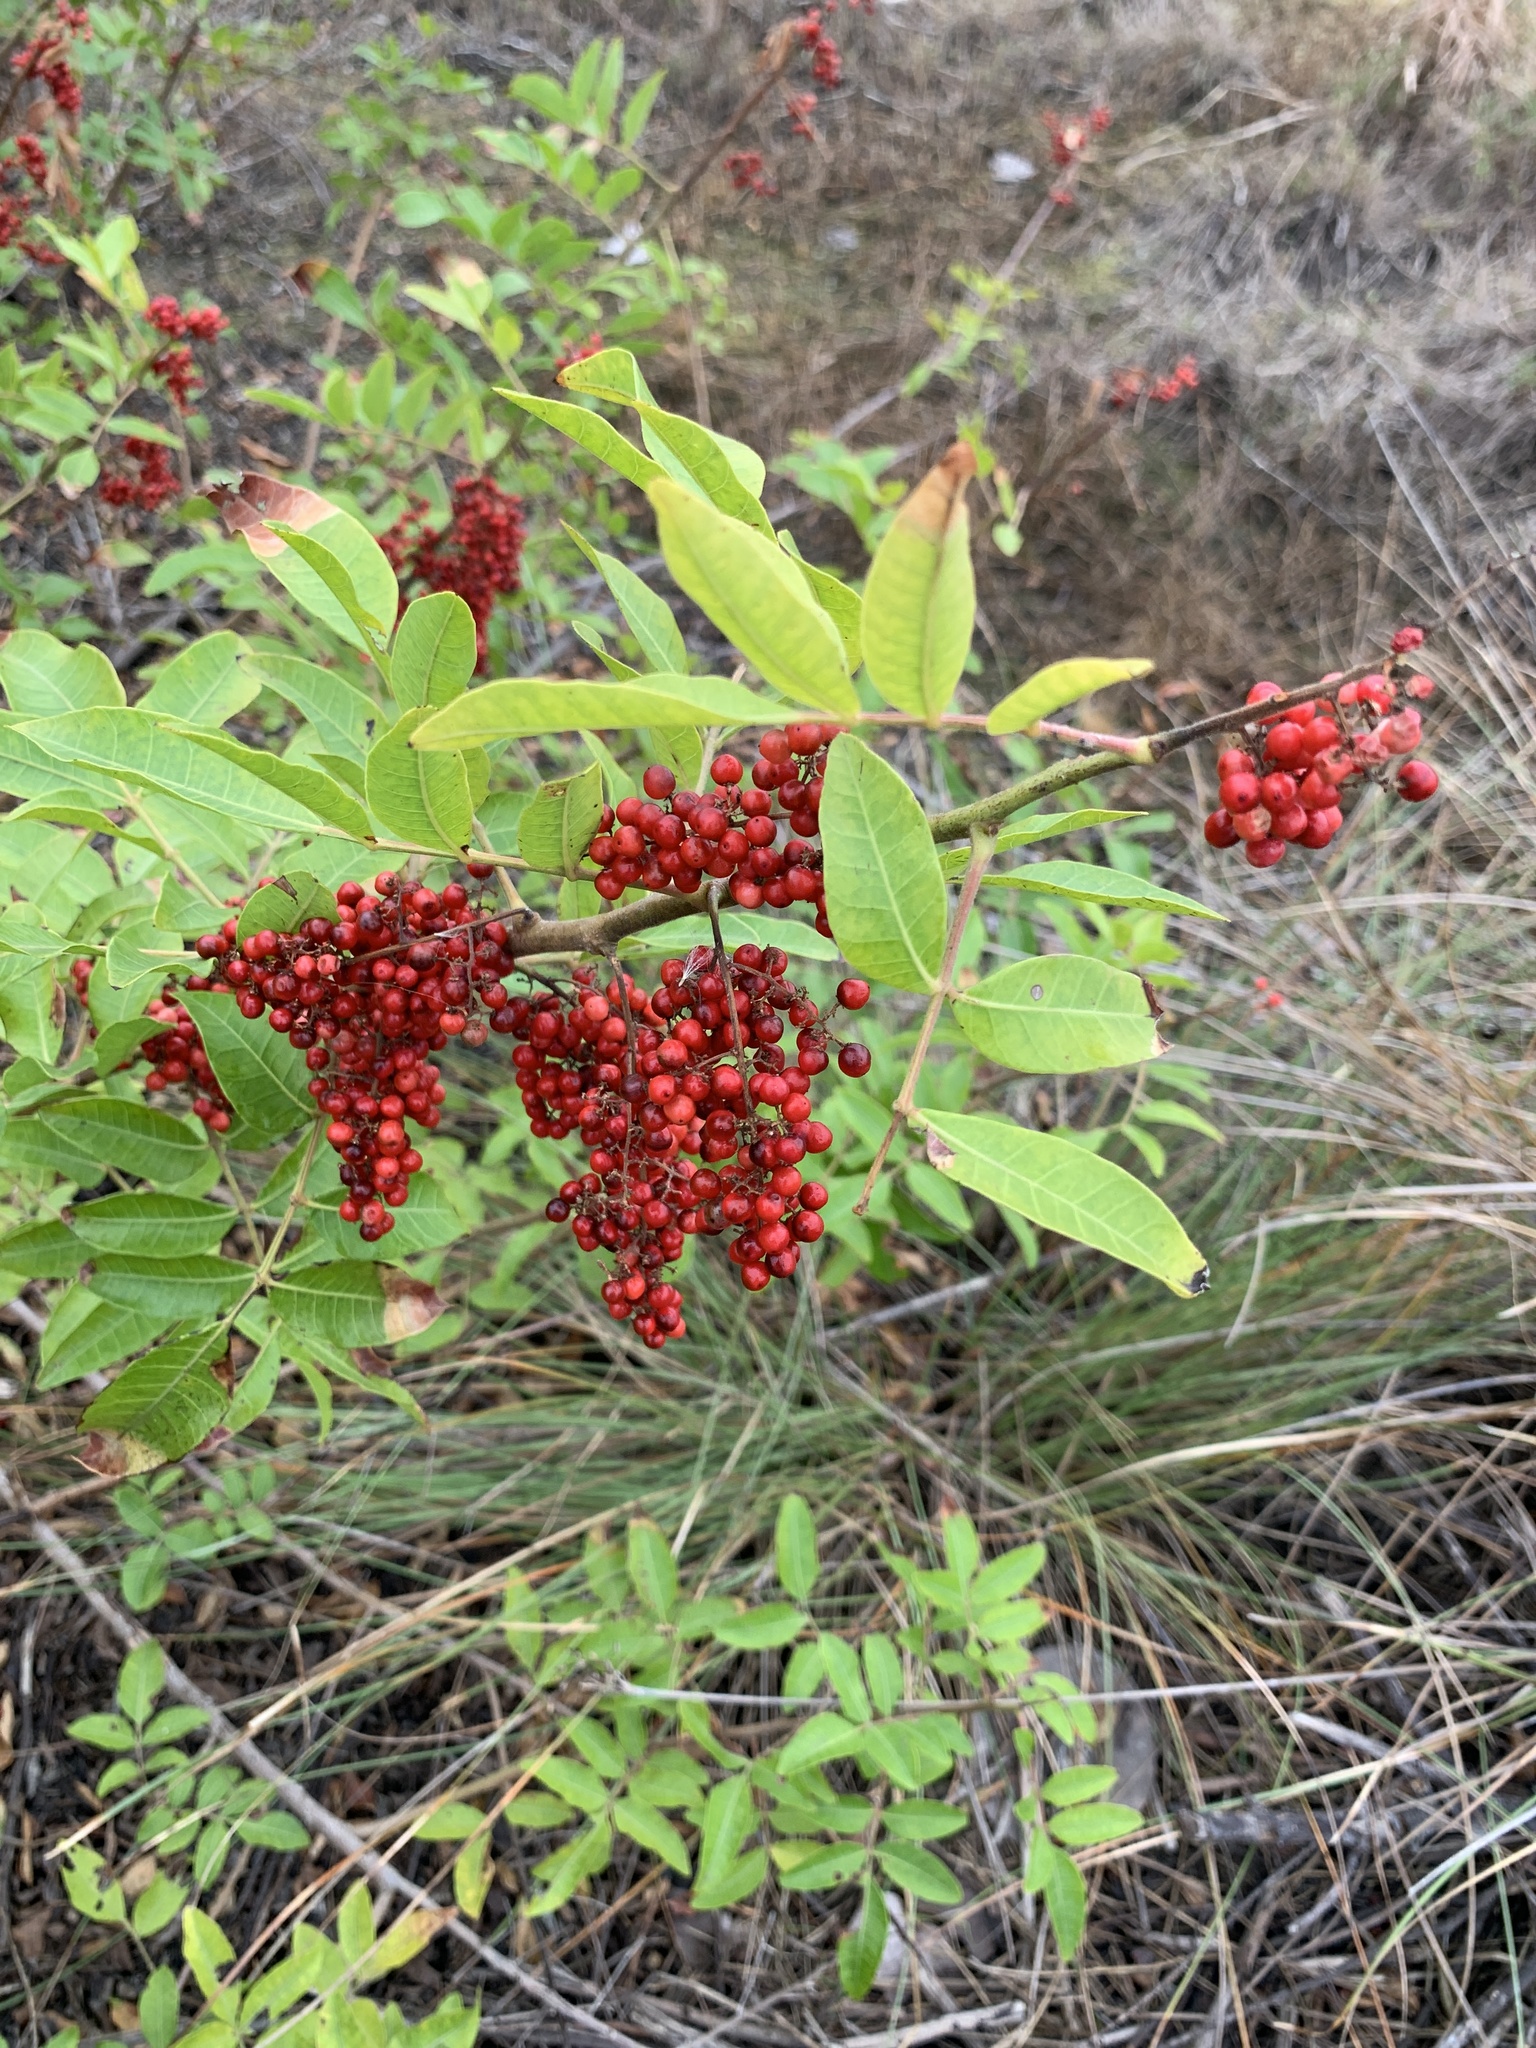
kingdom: Plantae
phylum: Tracheophyta
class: Magnoliopsida
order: Sapindales
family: Anacardiaceae
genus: Schinus
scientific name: Schinus terebinthifolia
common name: Brazilian peppertree
